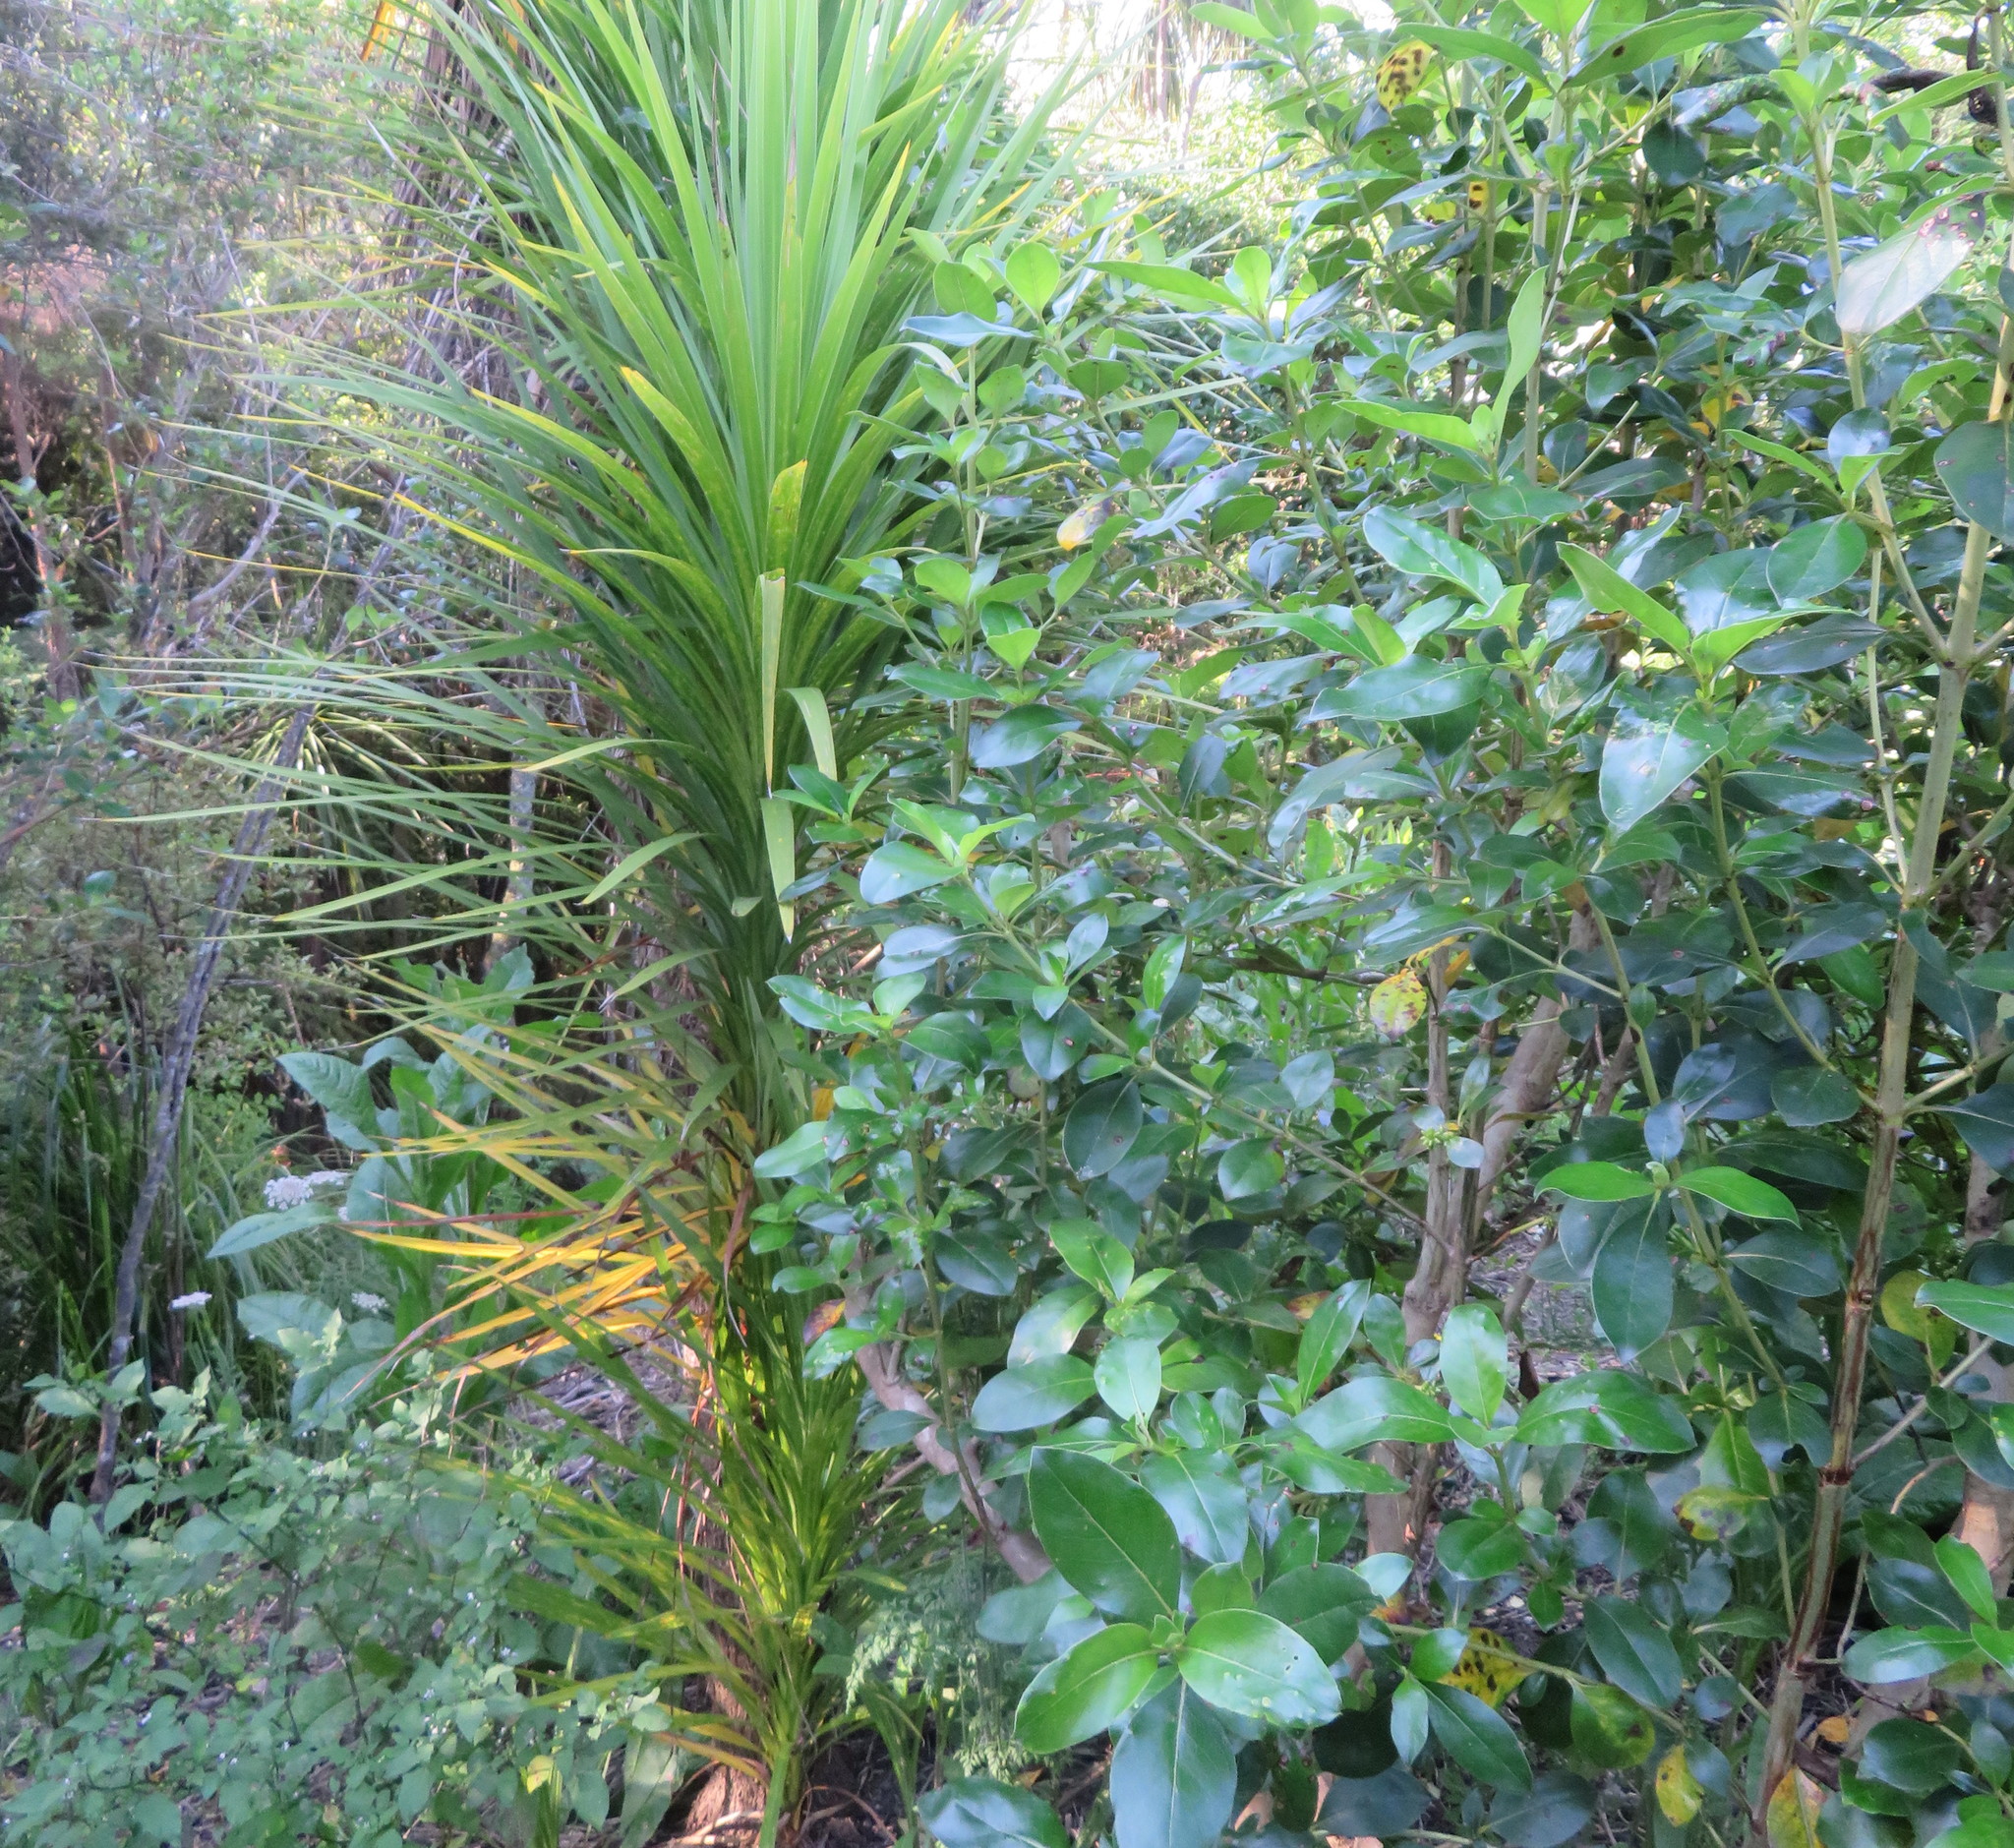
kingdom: Plantae
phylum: Tracheophyta
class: Liliopsida
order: Asparagales
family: Asparagaceae
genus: Cordyline
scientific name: Cordyline australis
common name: Cabbage-palm
